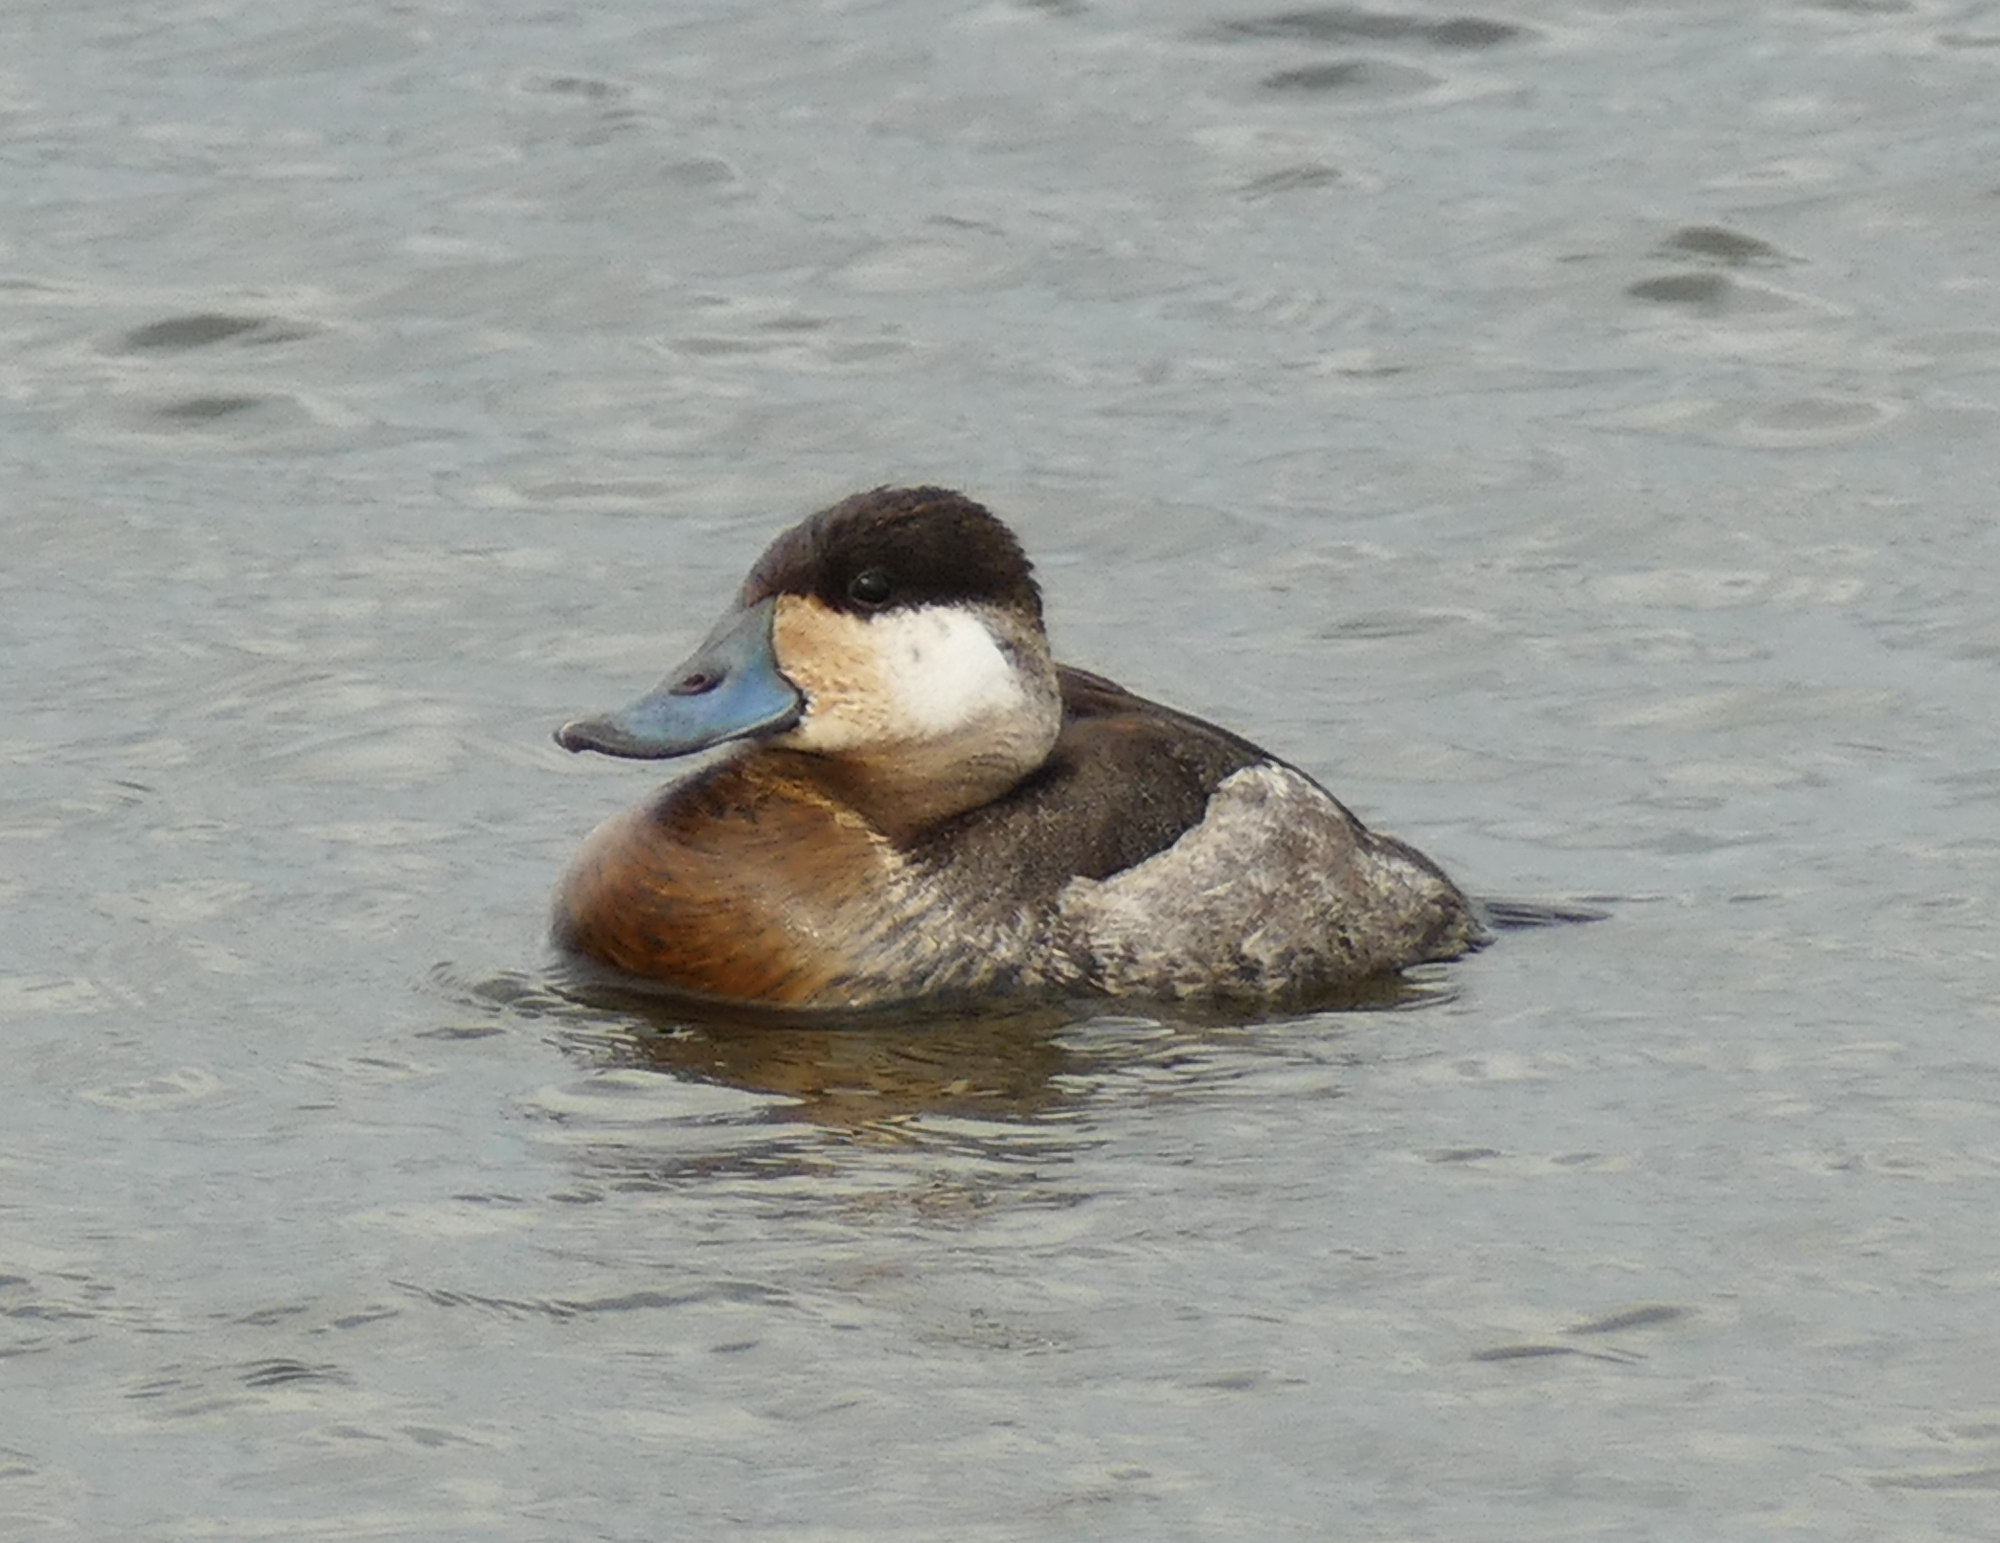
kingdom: Animalia
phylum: Chordata
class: Aves
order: Anseriformes
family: Anatidae
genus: Oxyura
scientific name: Oxyura jamaicensis
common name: Ruddy duck
